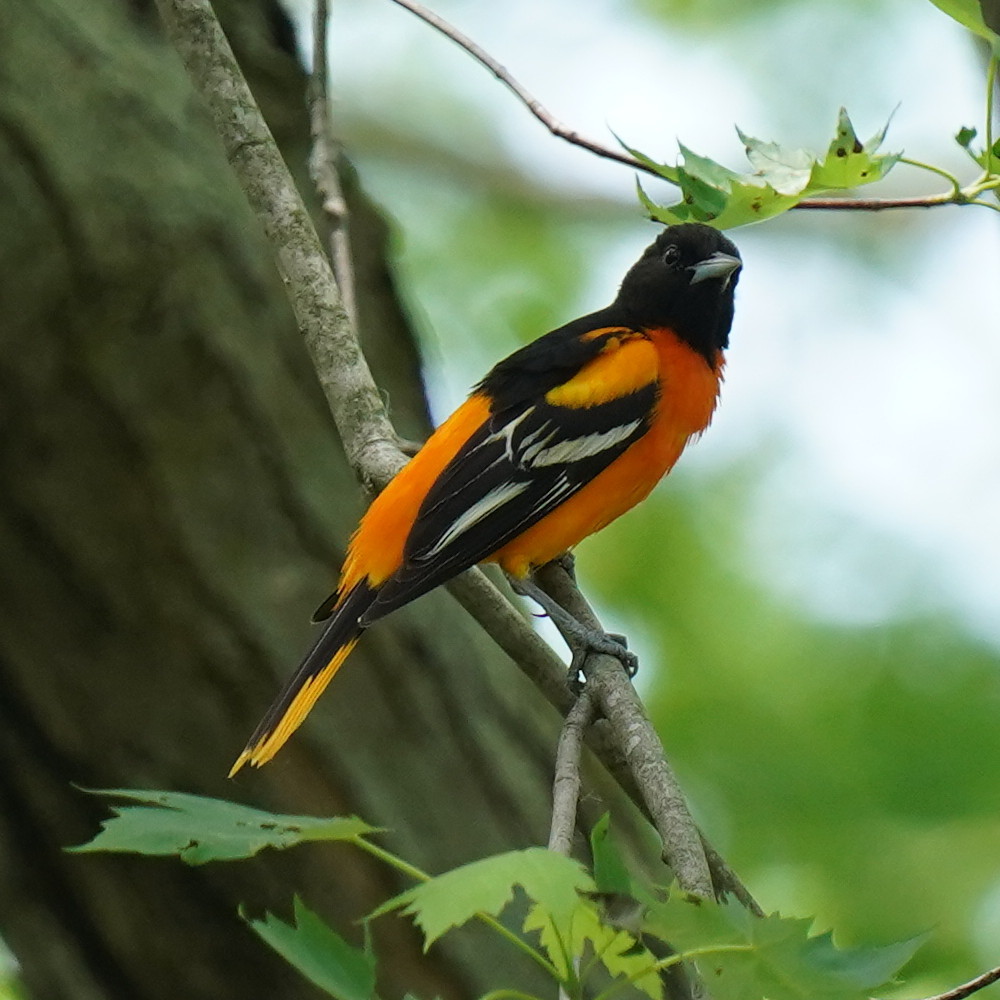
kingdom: Animalia
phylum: Chordata
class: Aves
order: Passeriformes
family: Icteridae
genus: Icterus
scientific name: Icterus galbula
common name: Baltimore oriole
